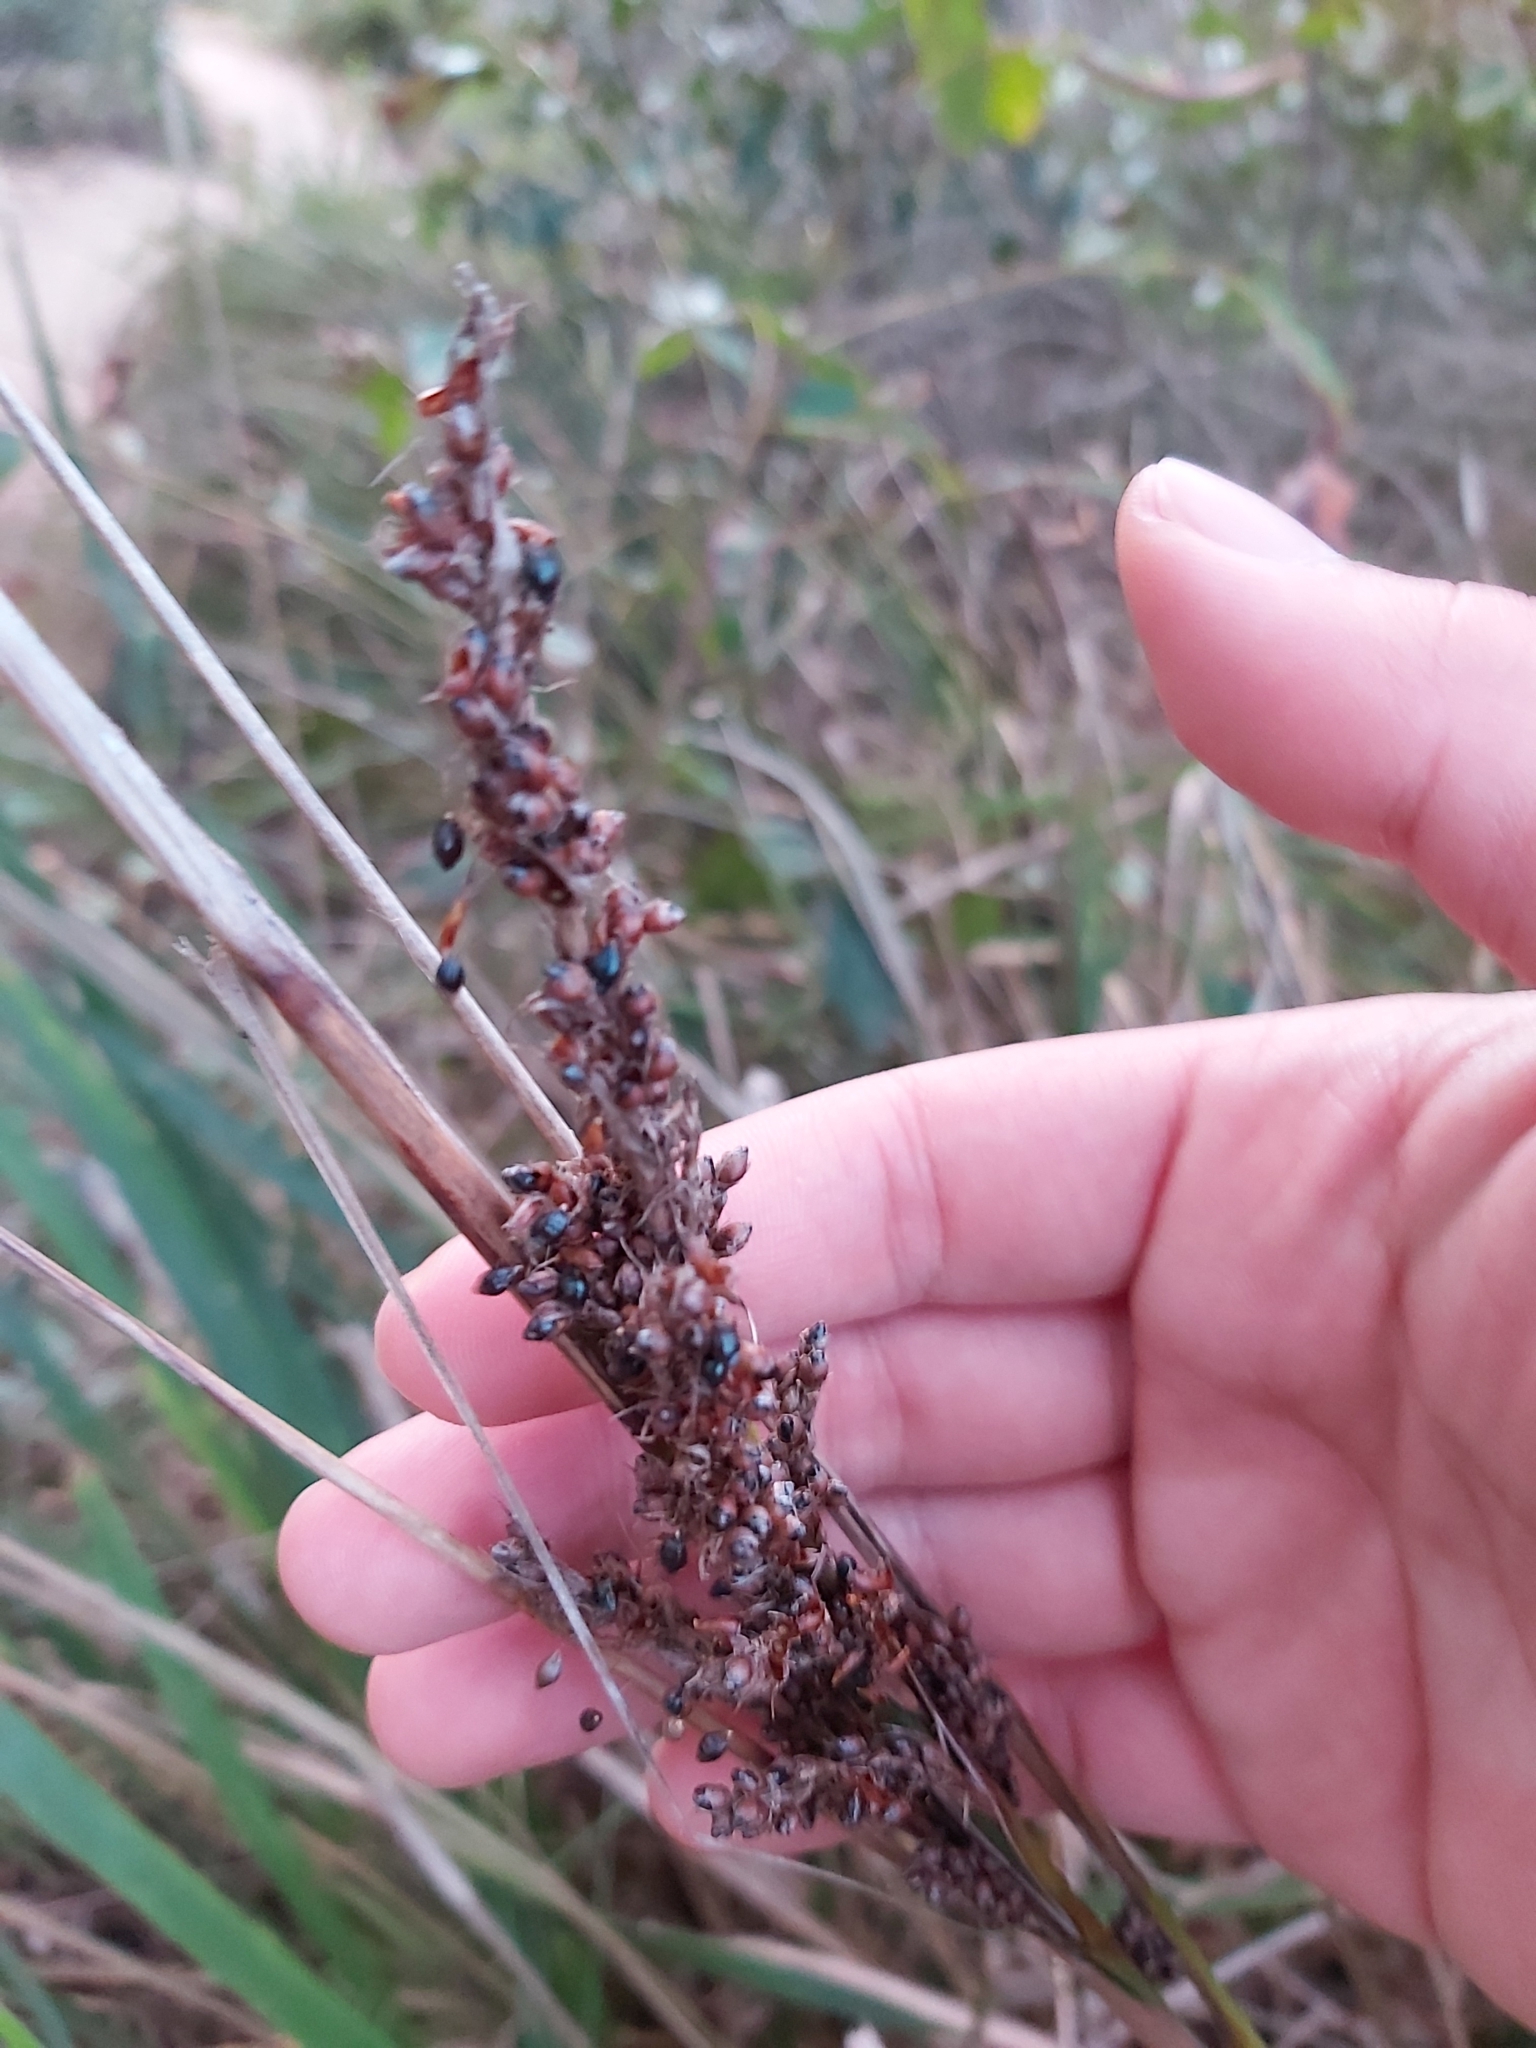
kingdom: Plantae
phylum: Tracheophyta
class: Liliopsida
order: Poales
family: Cyperaceae
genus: Gahnia
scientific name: Gahnia melanocarpa
